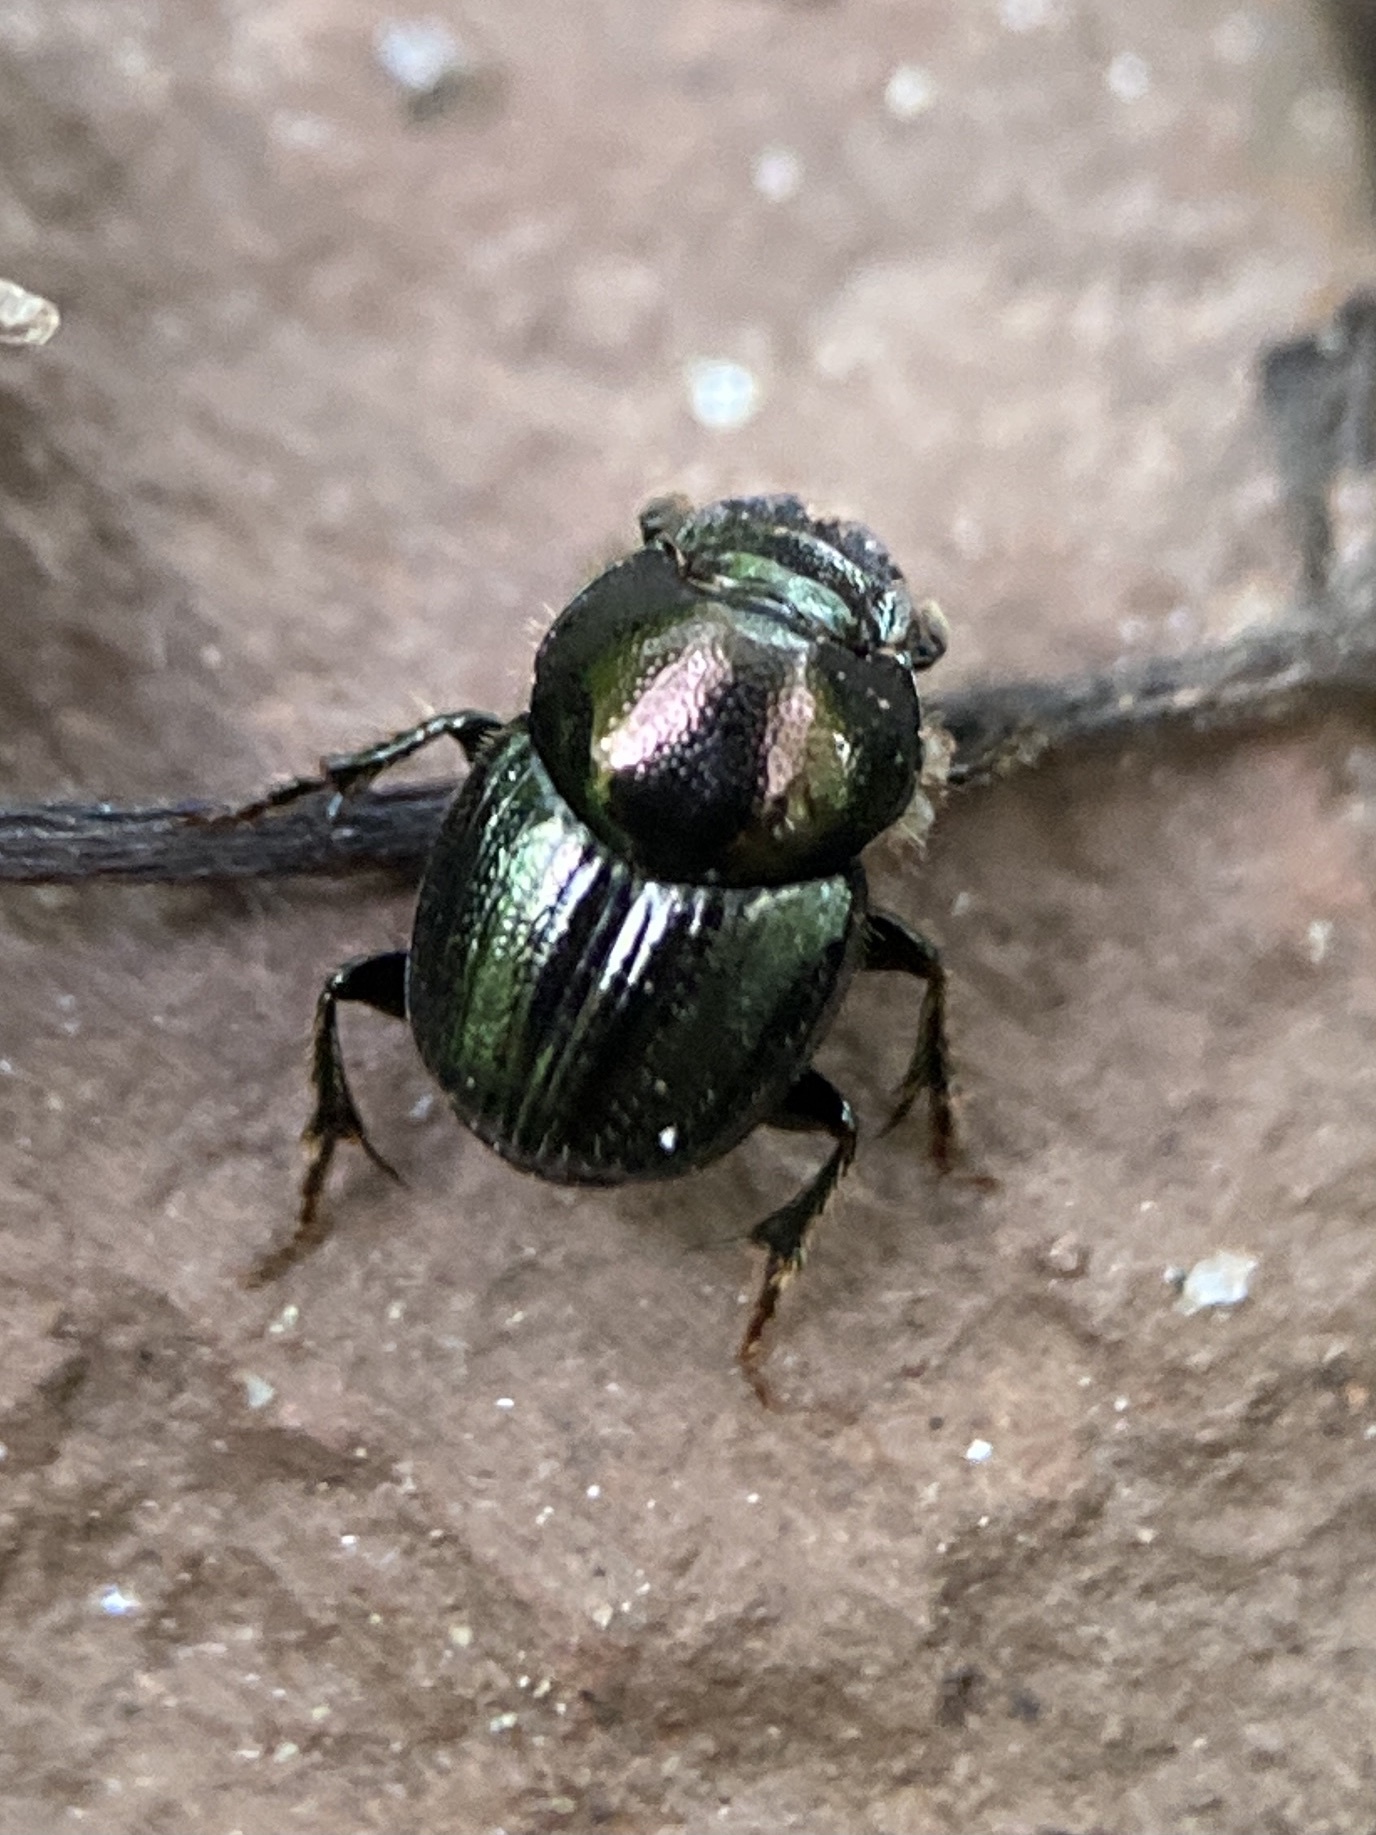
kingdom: Animalia
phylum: Arthropoda
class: Insecta
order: Coleoptera
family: Scarabaeidae
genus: Onthophagus
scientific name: Onthophagus orpheus
